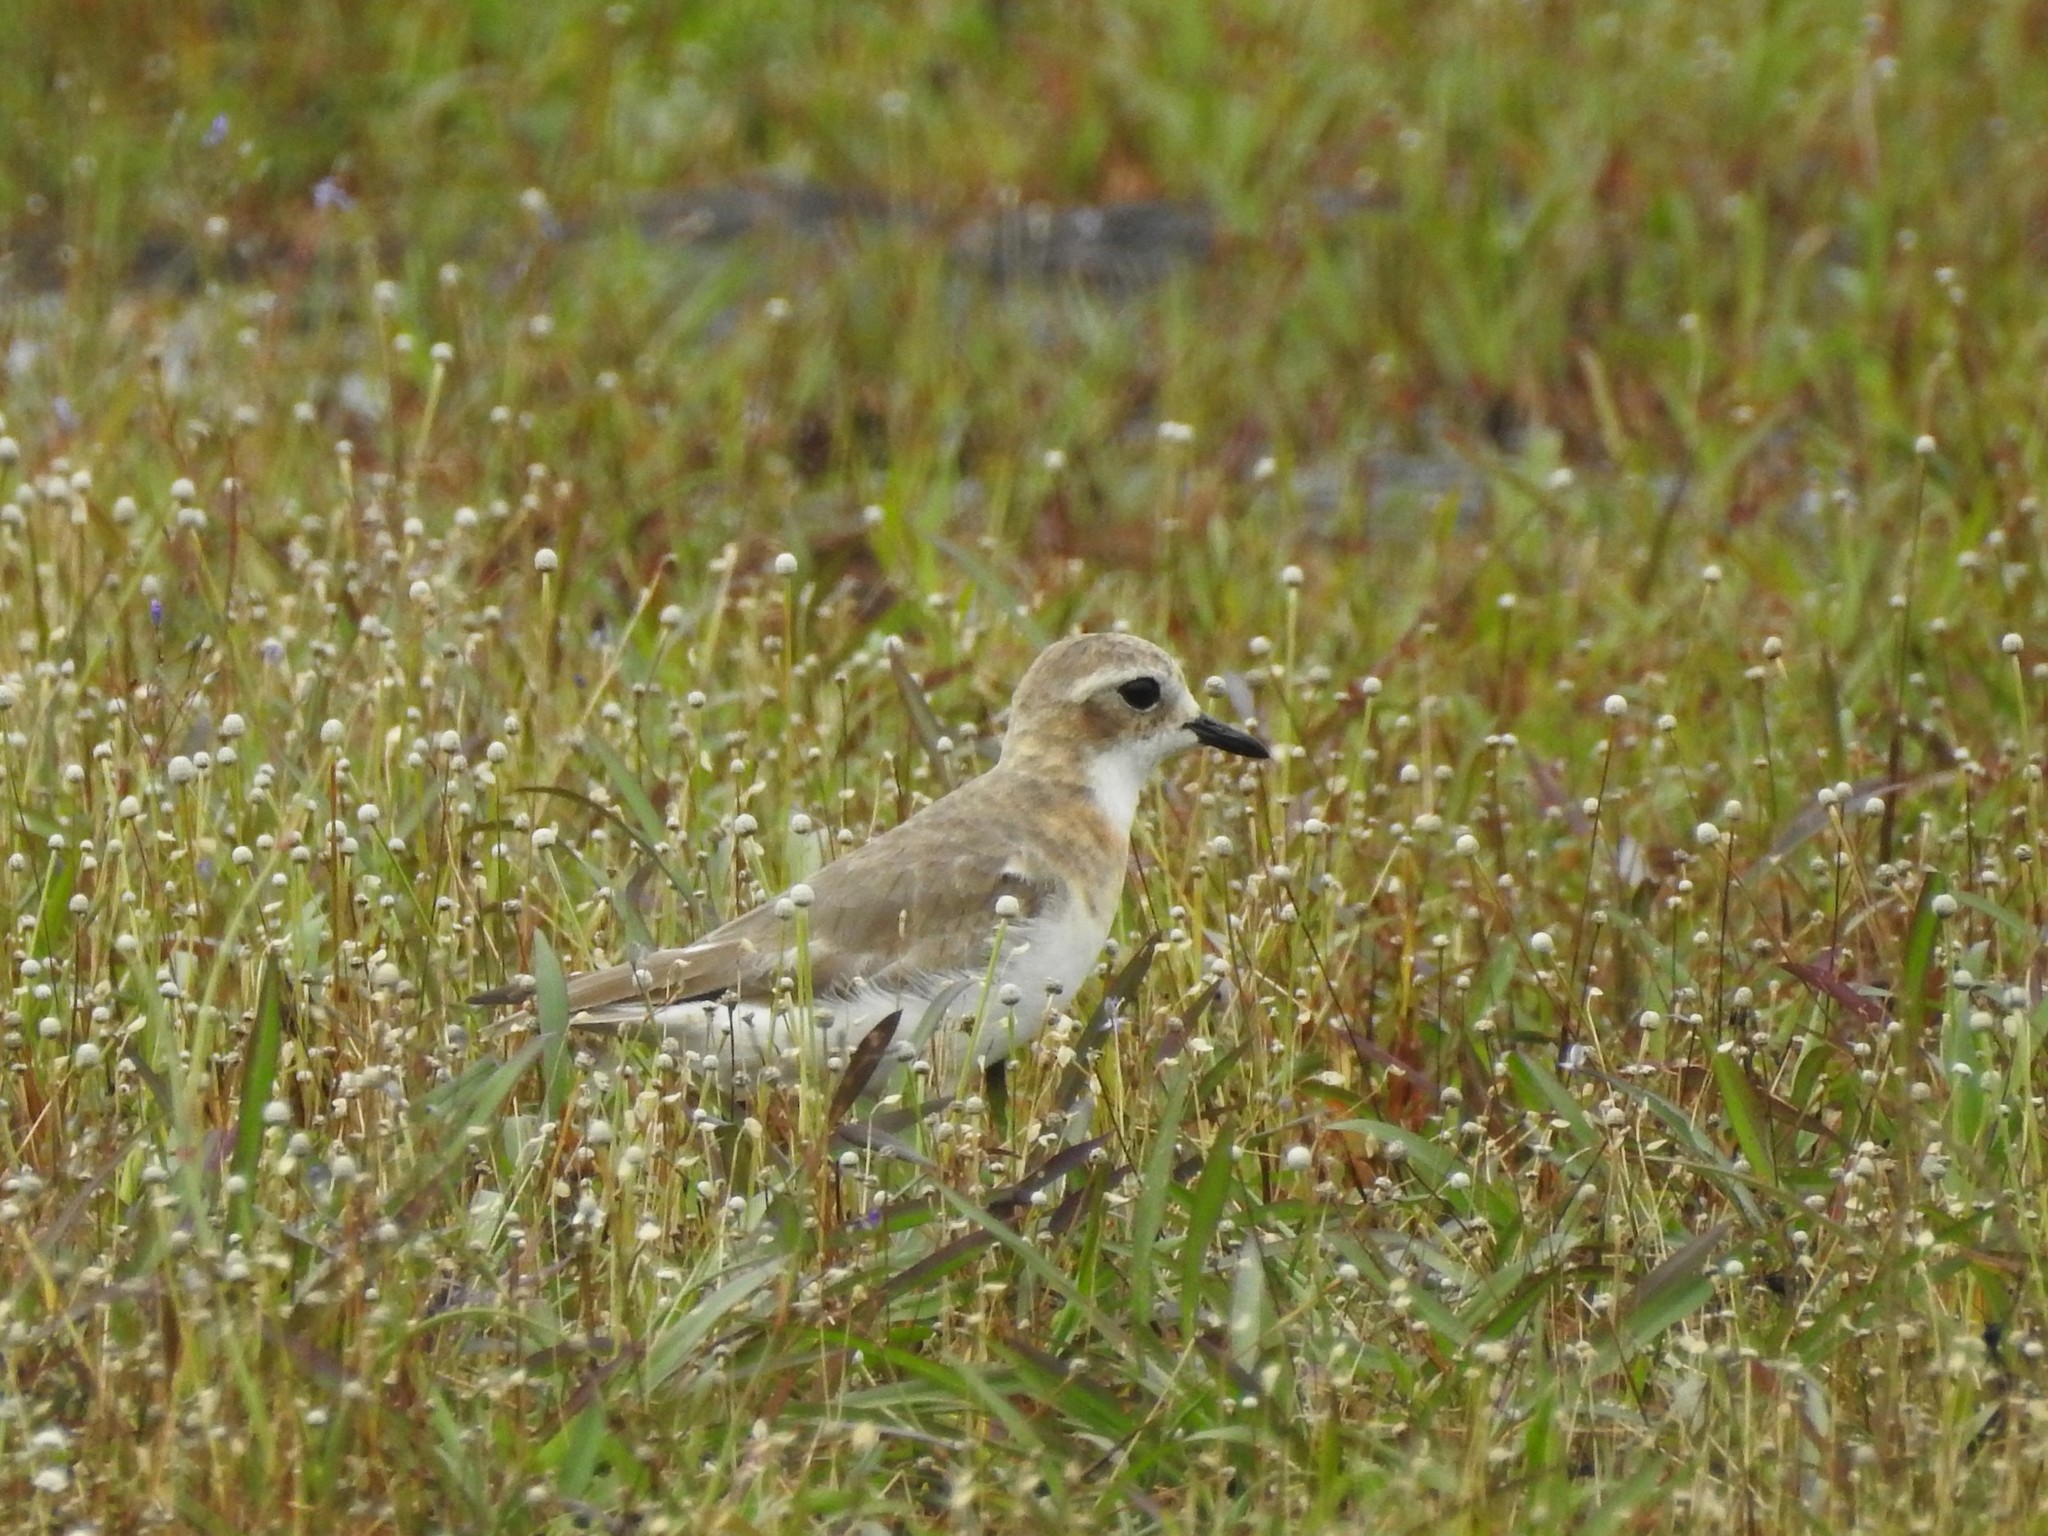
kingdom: Animalia
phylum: Chordata
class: Aves
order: Charadriiformes
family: Charadriidae
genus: Anarhynchus
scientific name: Anarhynchus
